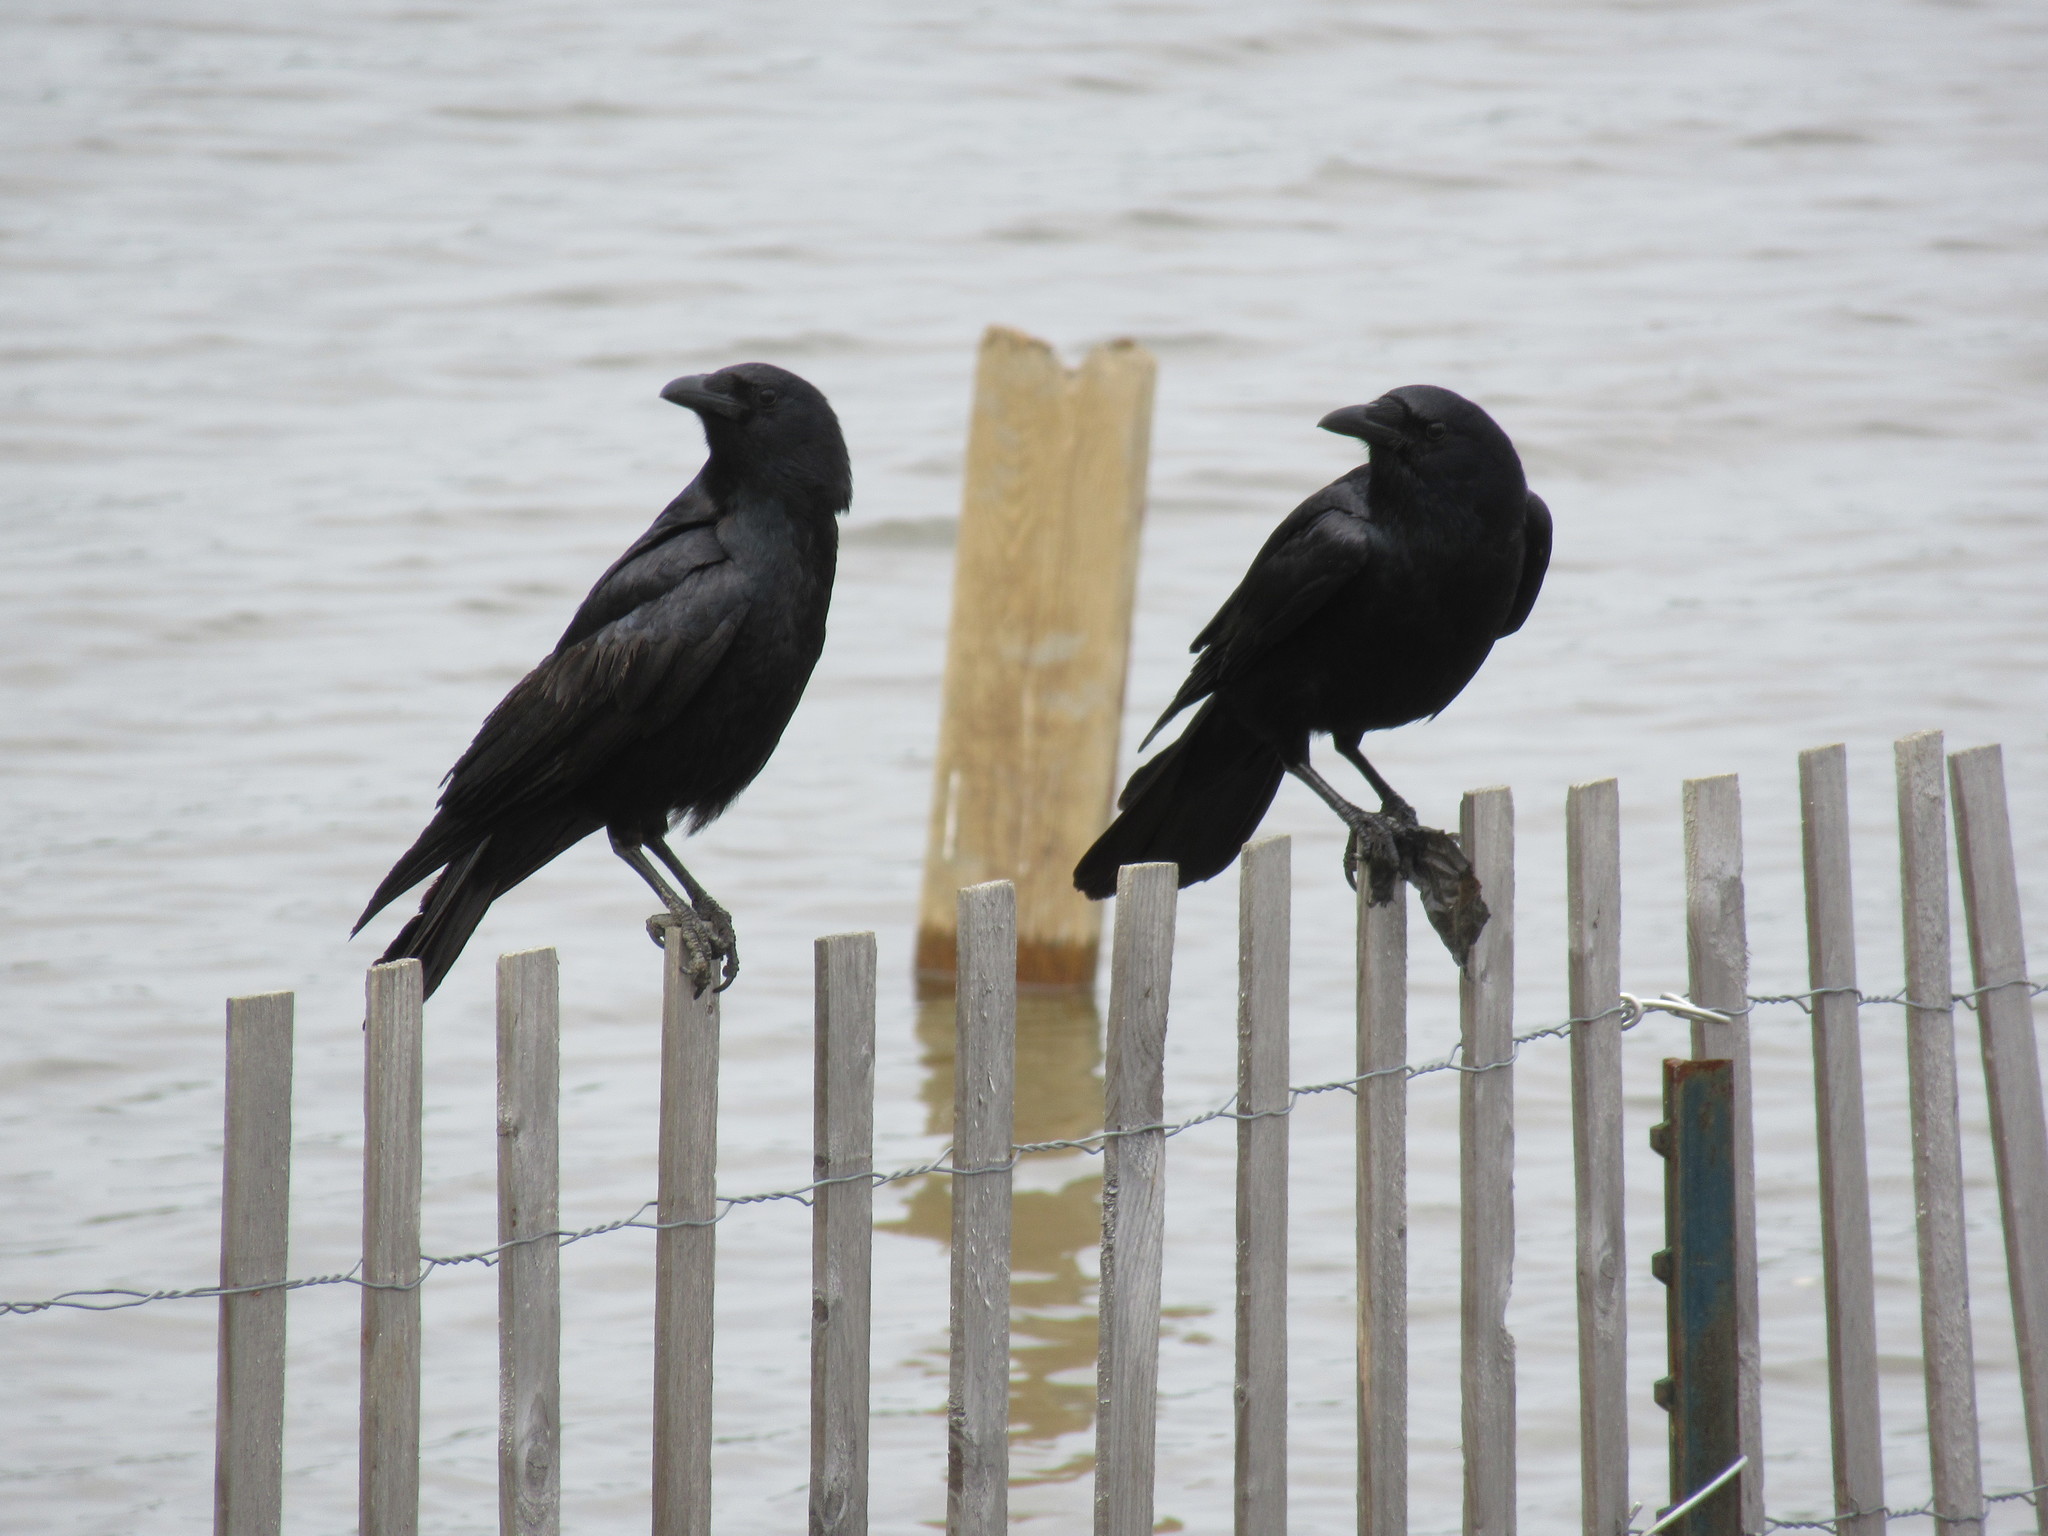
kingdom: Animalia
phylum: Chordata
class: Aves
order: Passeriformes
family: Corvidae
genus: Corvus
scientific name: Corvus brachyrhynchos
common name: American crow
